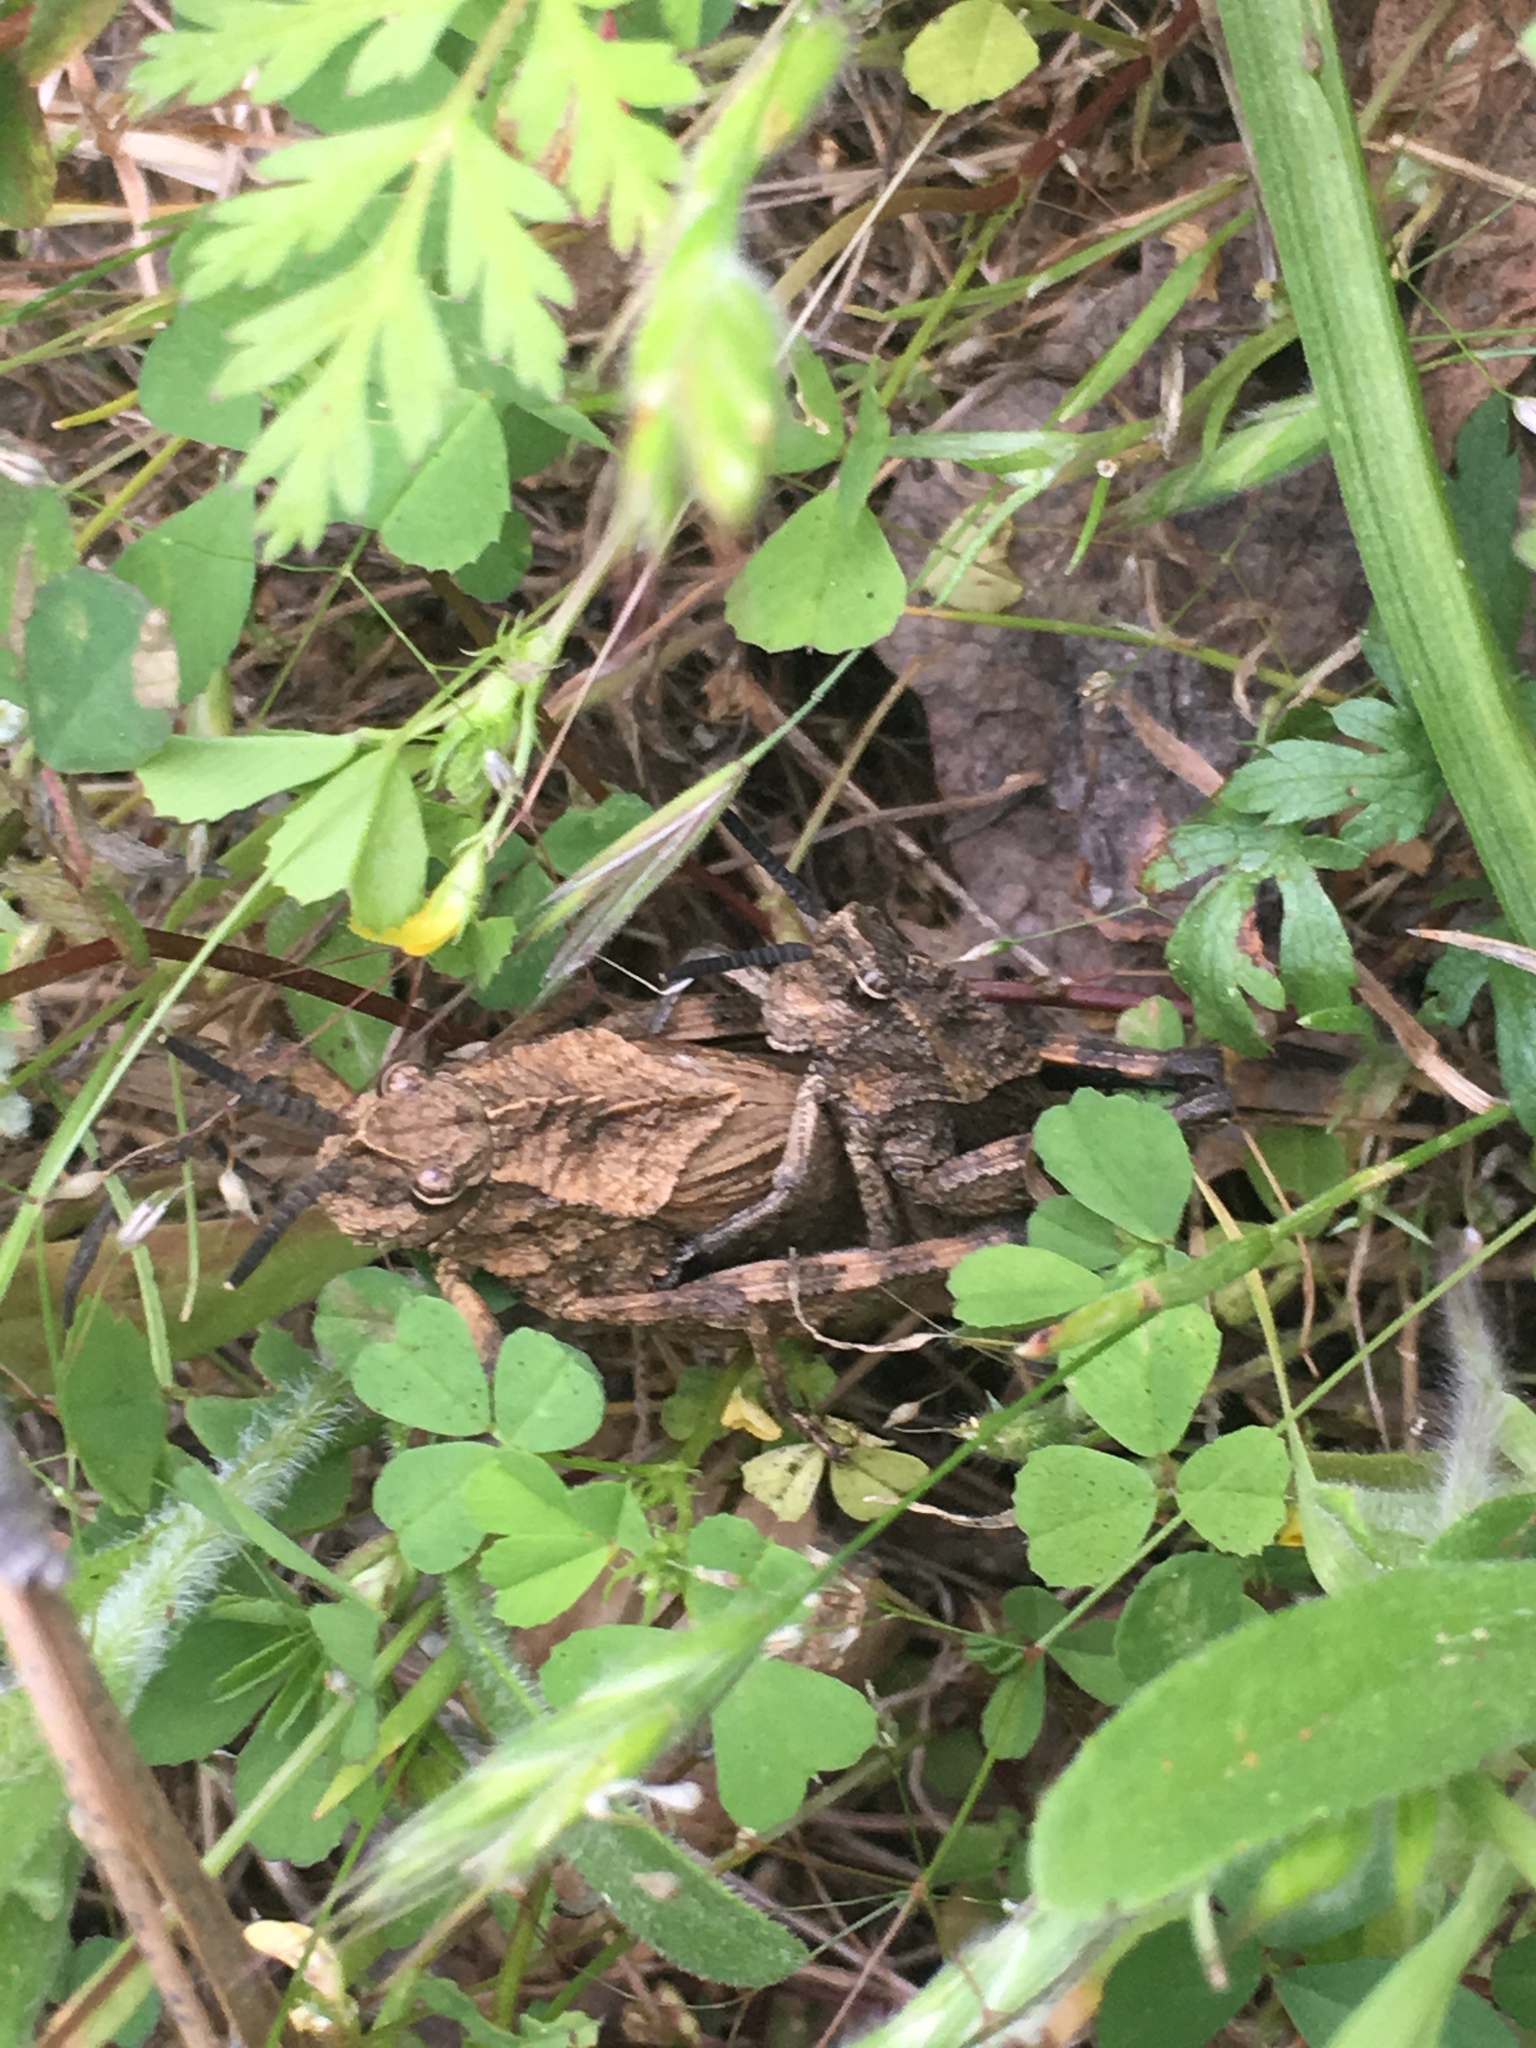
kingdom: Animalia
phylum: Arthropoda
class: Insecta
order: Orthoptera
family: Romaleidae
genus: Dracotettix
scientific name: Dracotettix monstrosus
